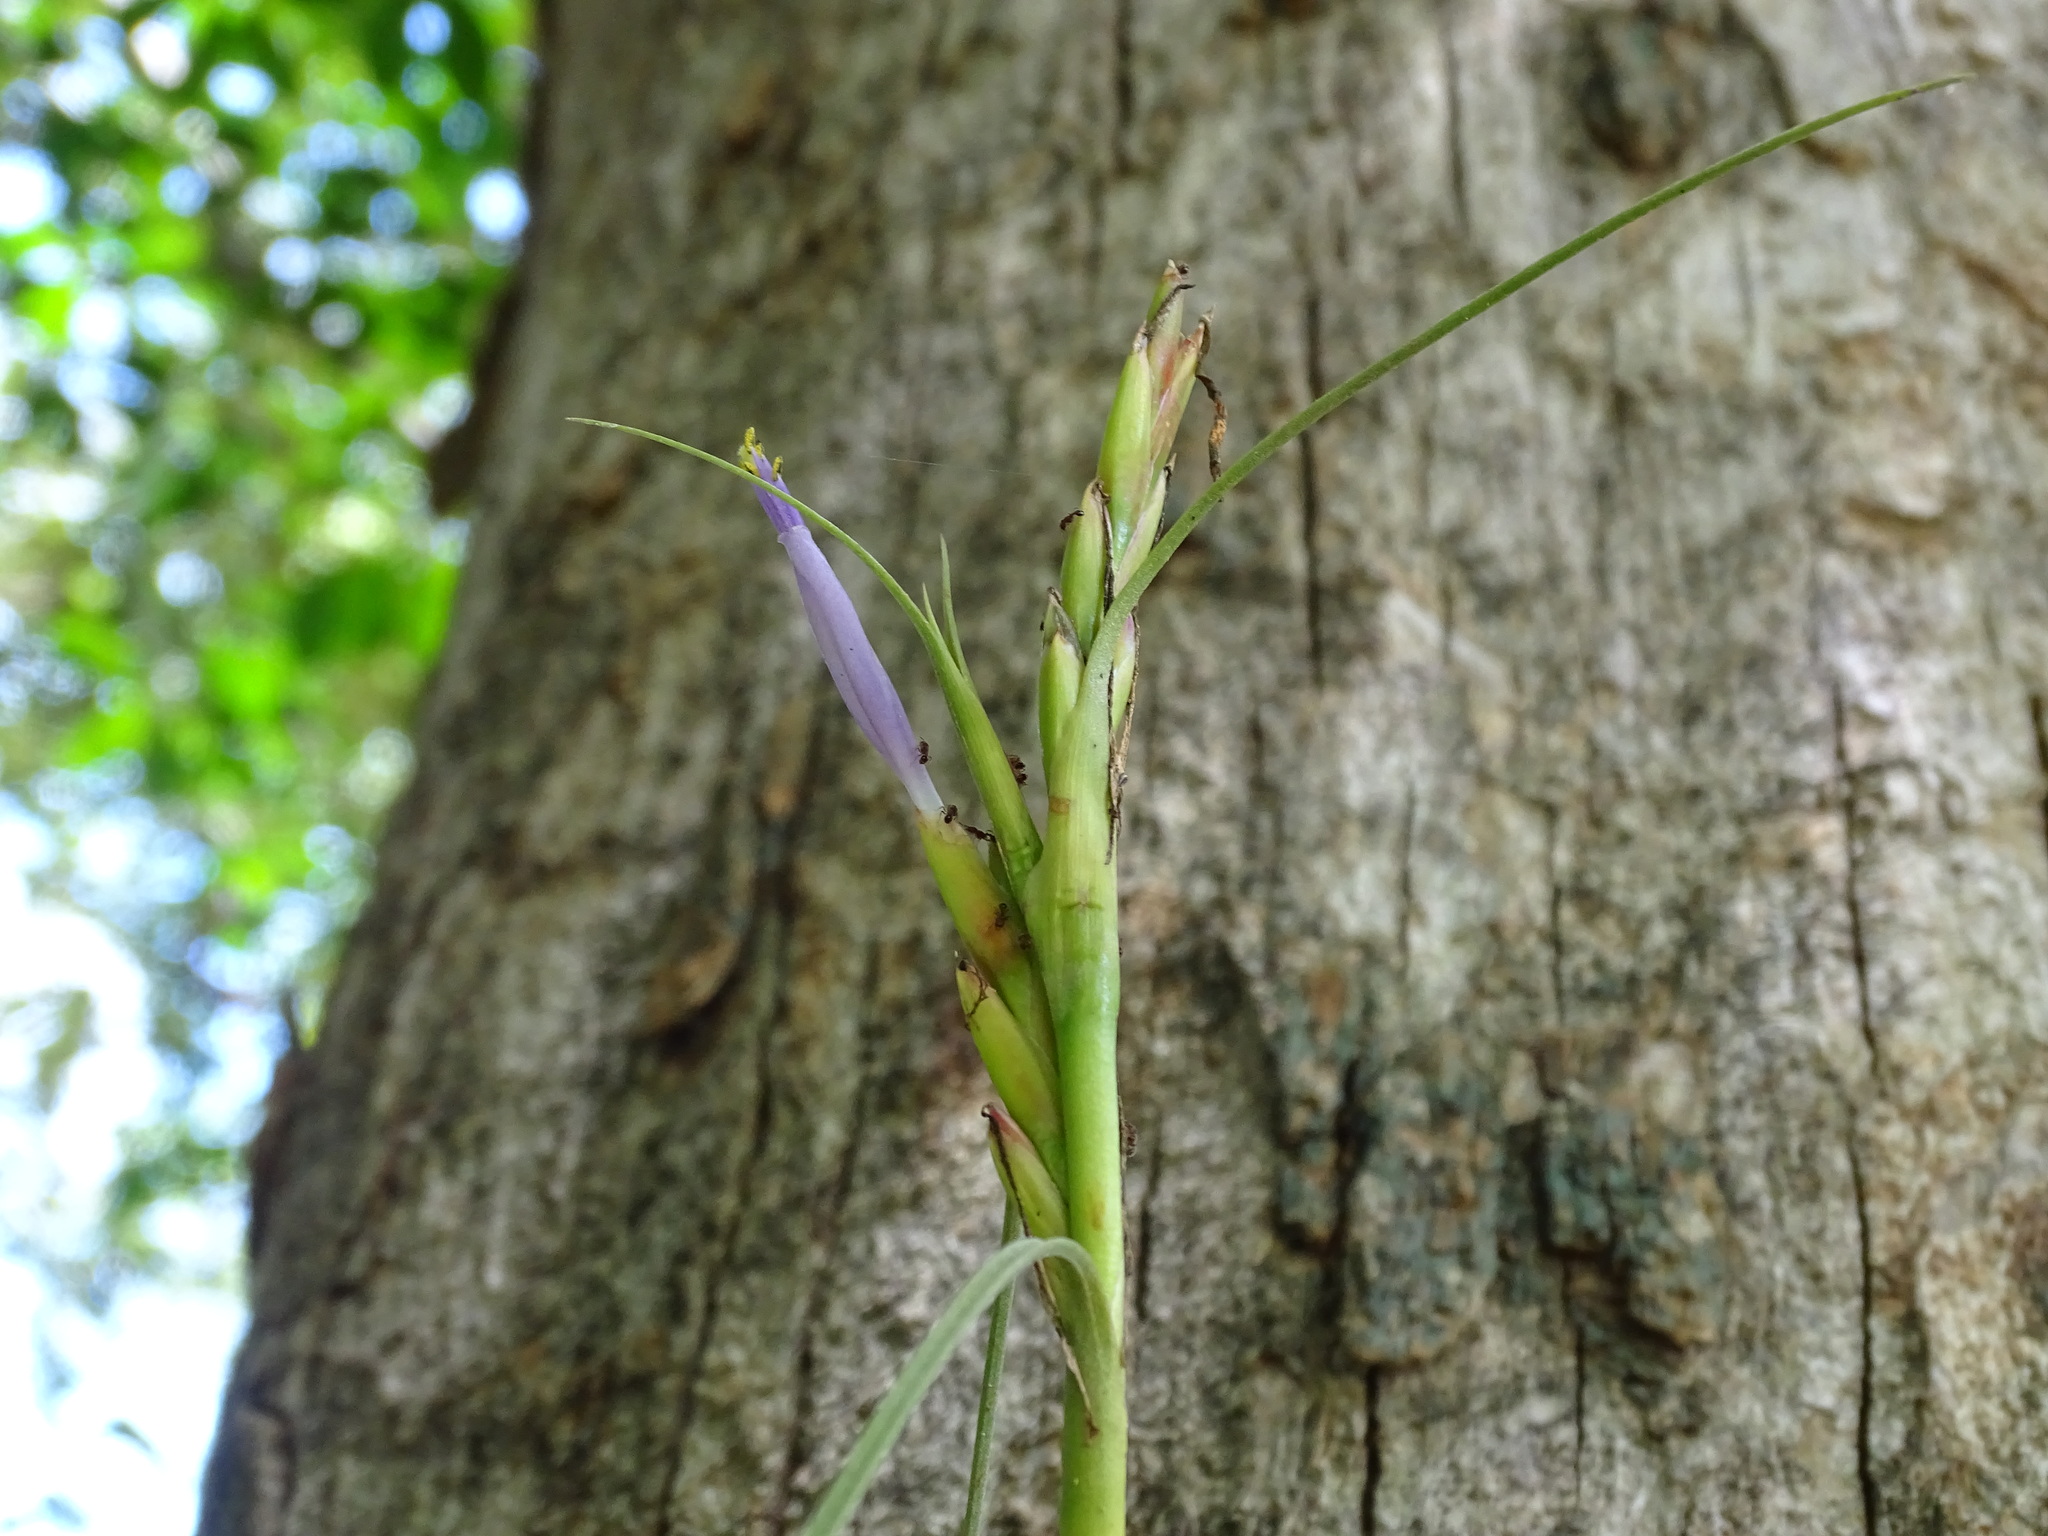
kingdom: Plantae
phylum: Tracheophyta
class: Liliopsida
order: Poales
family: Bromeliaceae
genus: Tillandsia
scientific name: Tillandsia balbisiana
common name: Northern needleleaf
